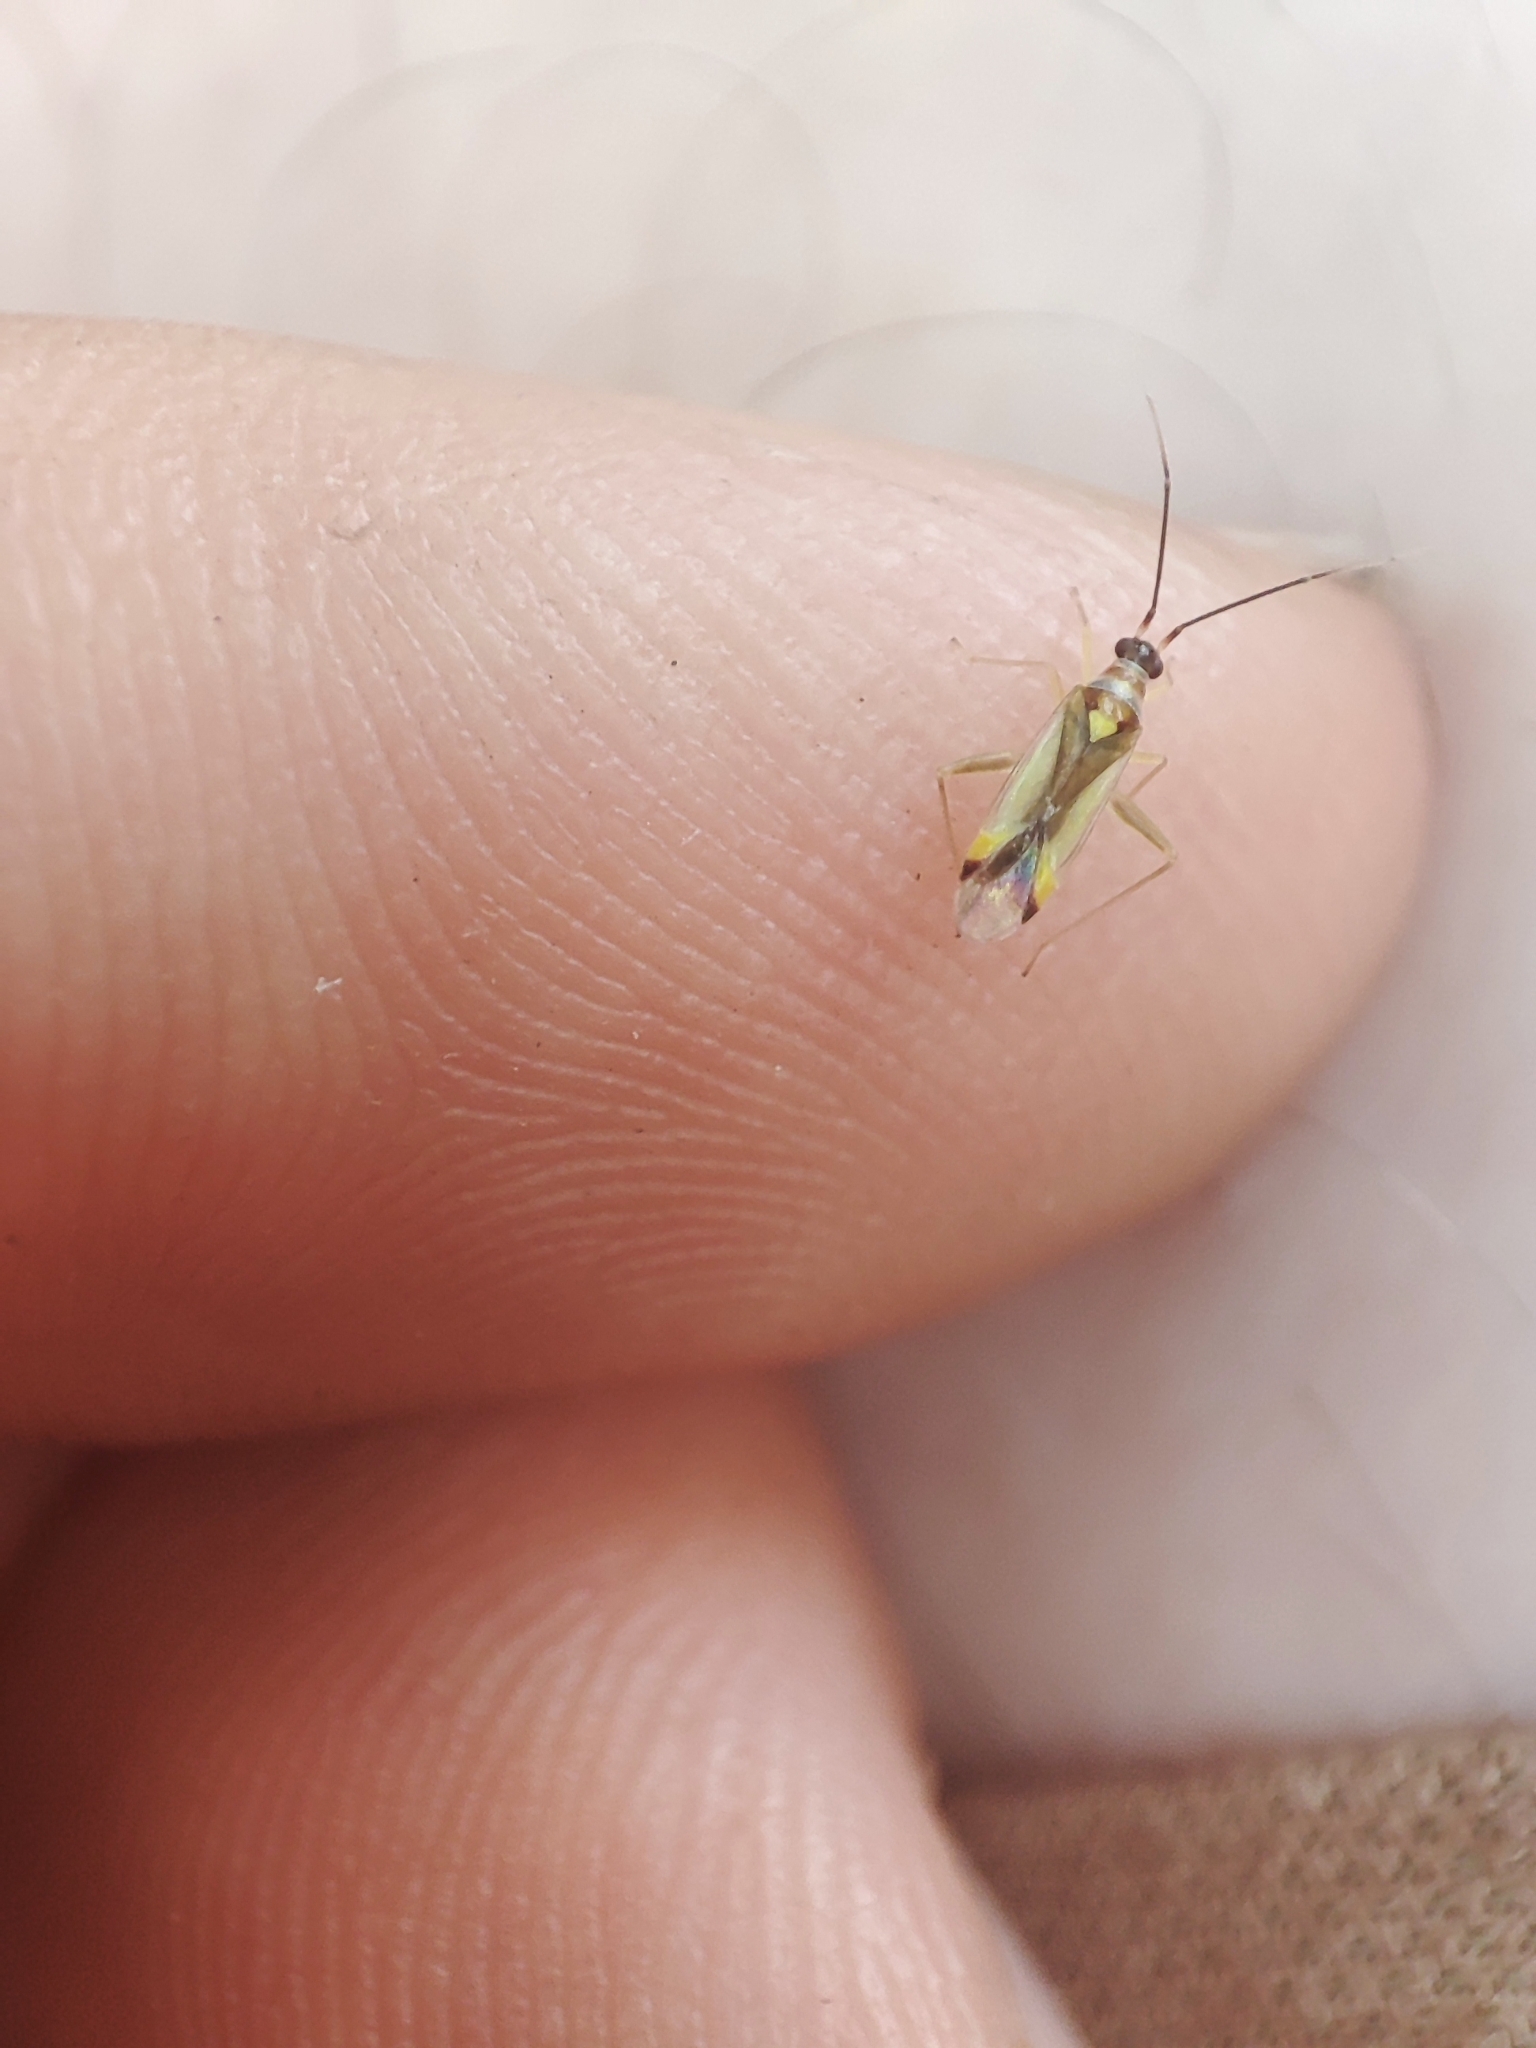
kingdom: Animalia
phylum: Arthropoda
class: Insecta
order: Hemiptera
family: Miridae
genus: Campyloneura
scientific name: Campyloneura virgula
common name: Predatory bug
